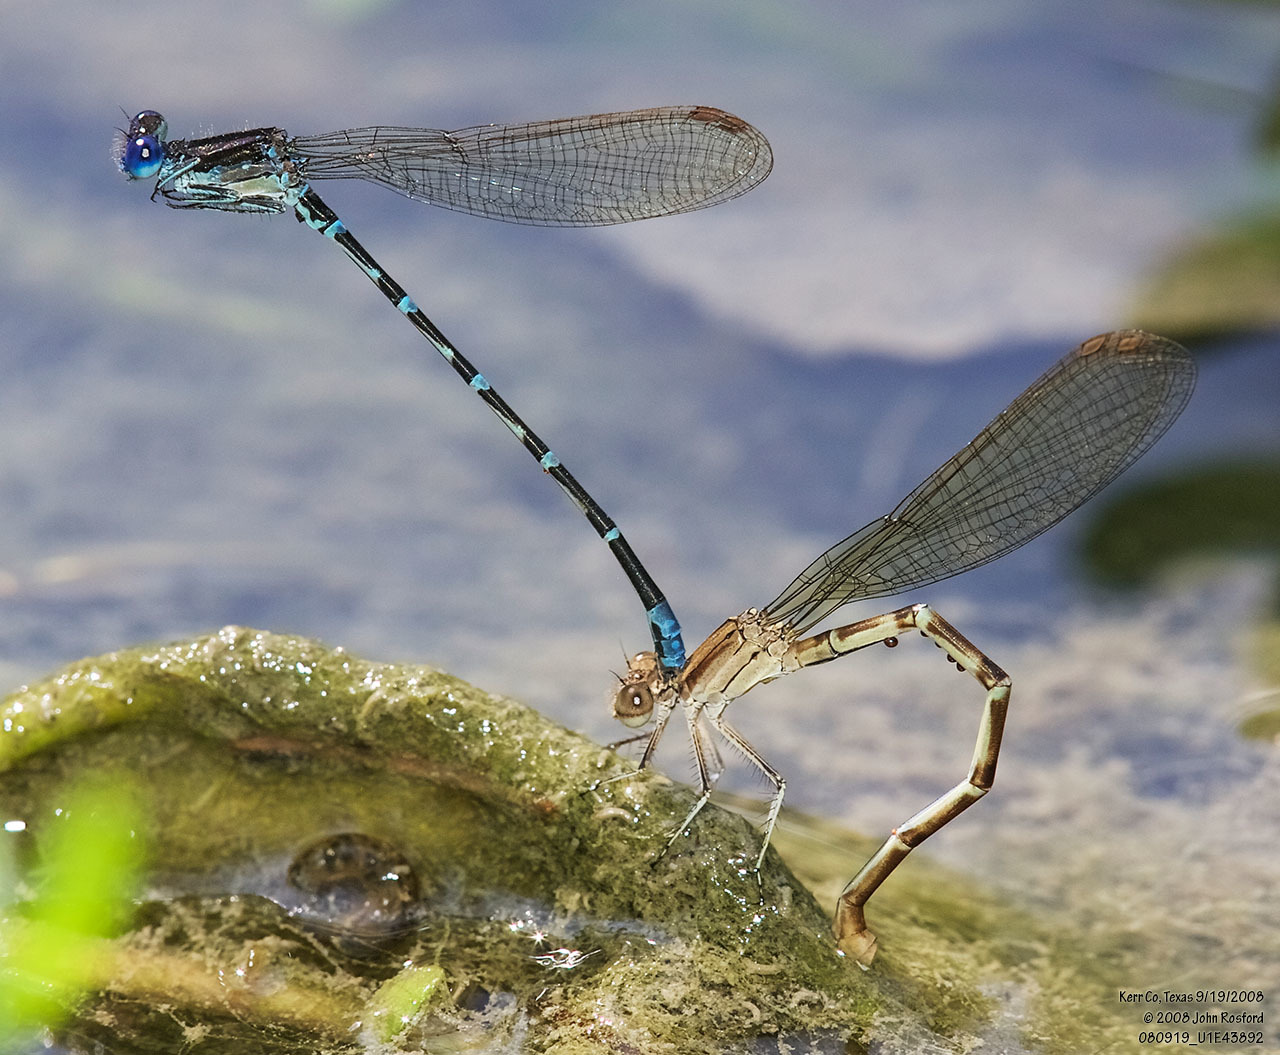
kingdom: Animalia
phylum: Arthropoda
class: Insecta
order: Odonata
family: Coenagrionidae
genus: Argia
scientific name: Argia sedula
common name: Blue-ringed dancer
